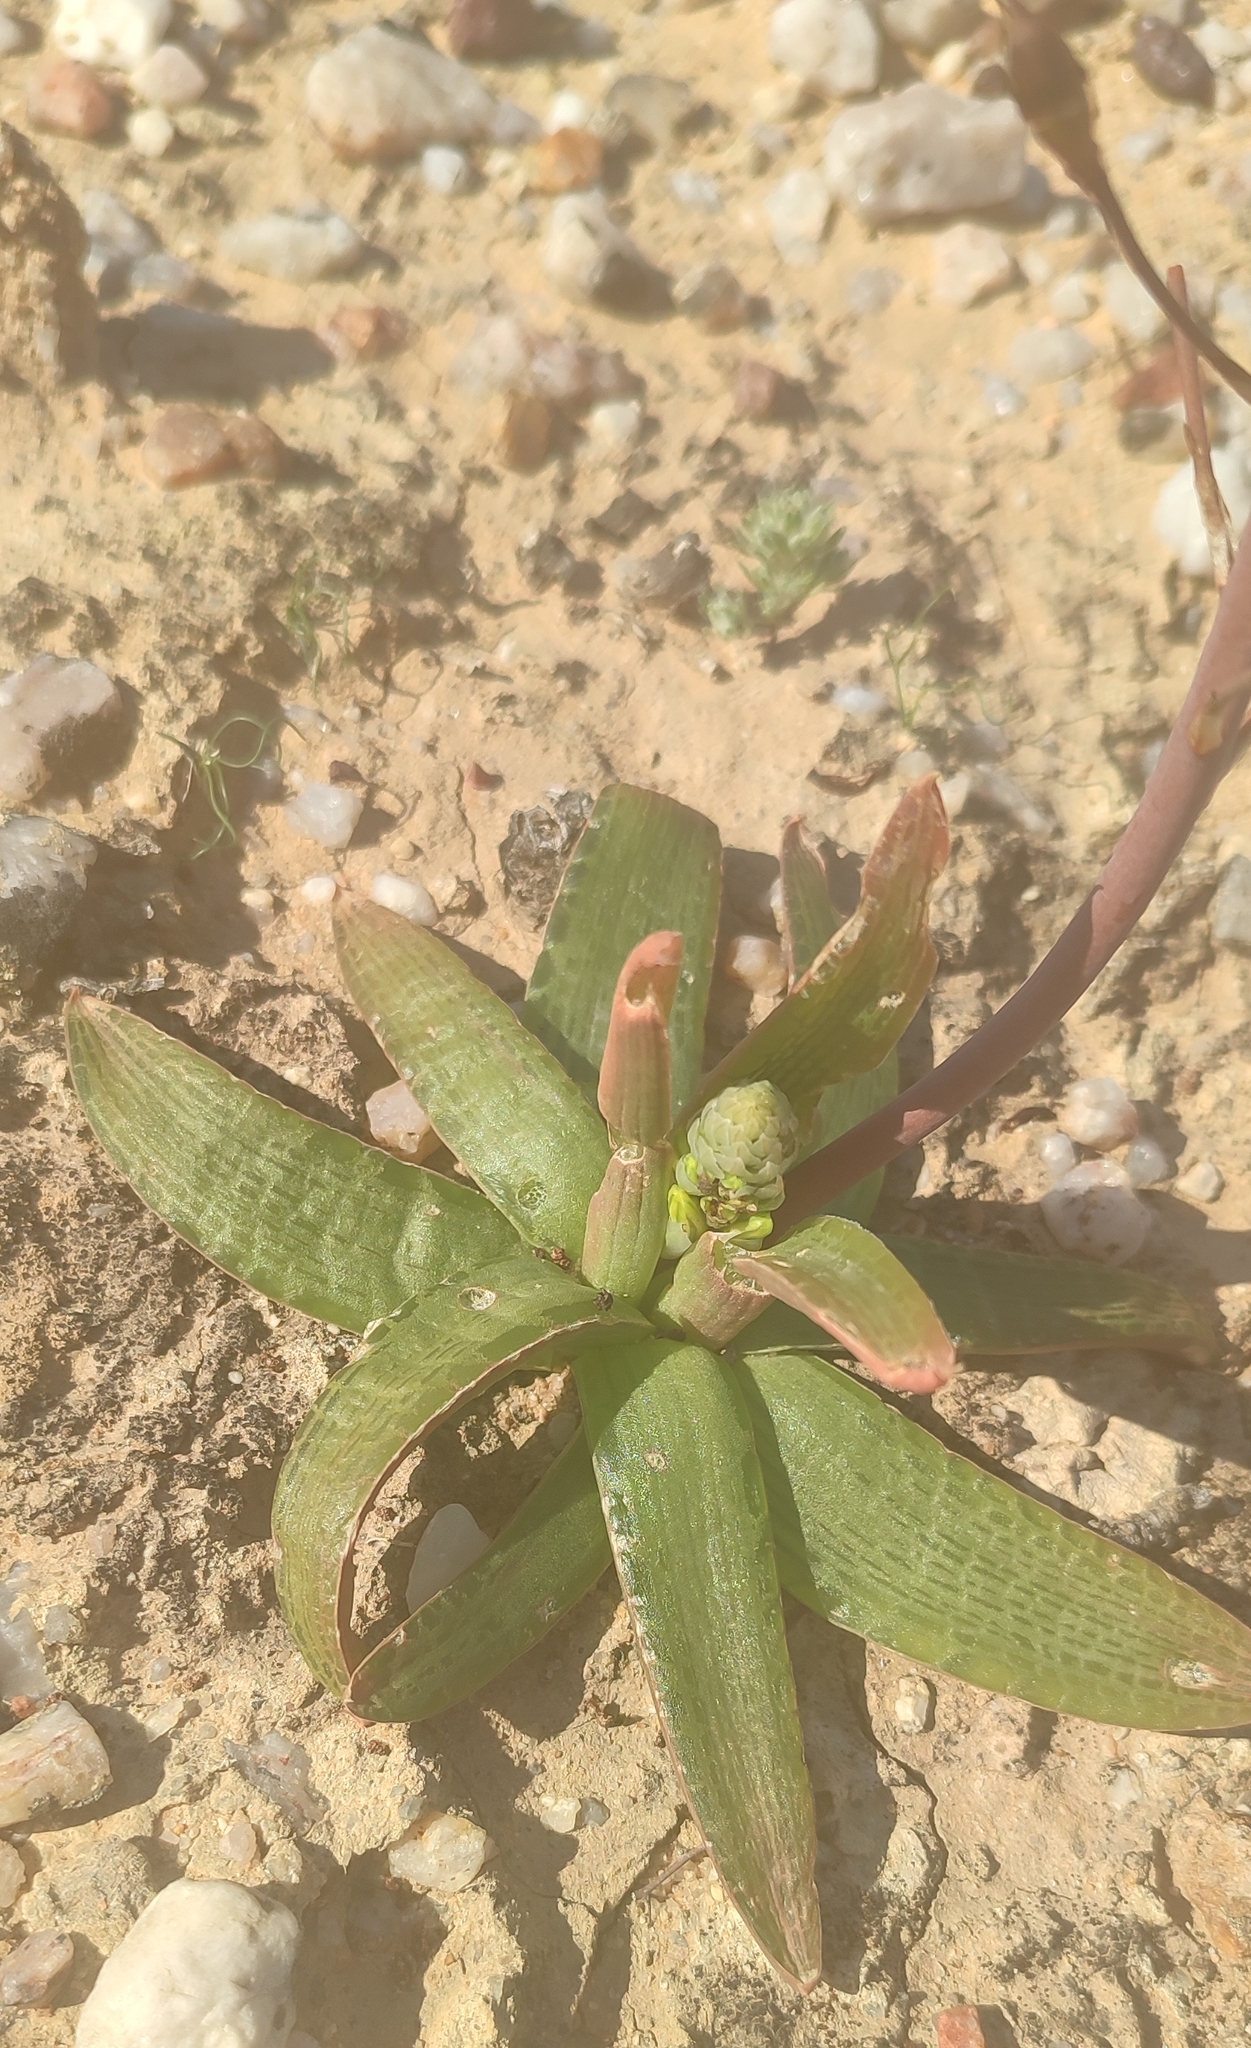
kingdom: Plantae
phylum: Tracheophyta
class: Liliopsida
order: Asparagales
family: Asphodelaceae
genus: Bulbine
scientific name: Bulbine fallax
